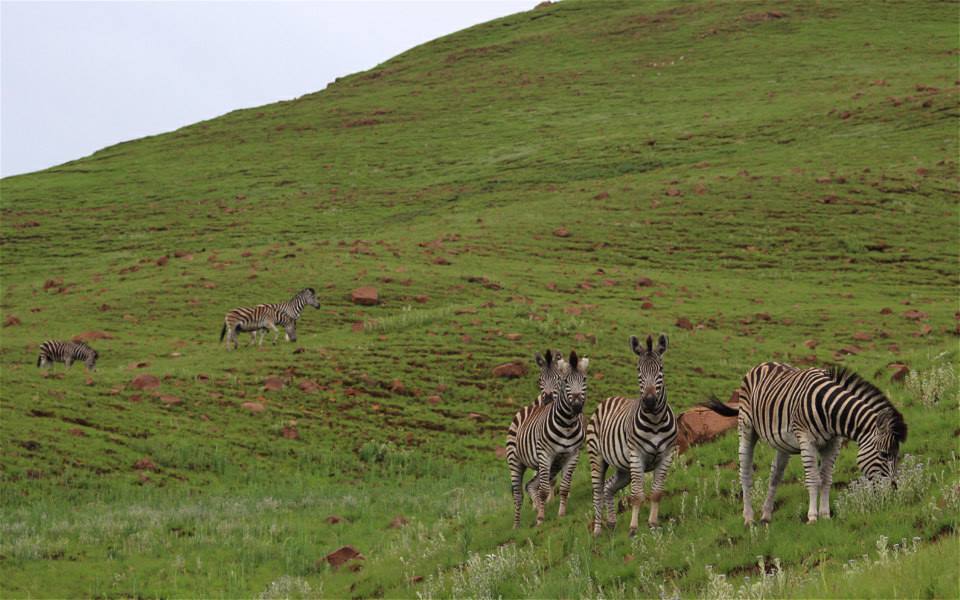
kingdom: Animalia
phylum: Chordata
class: Mammalia
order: Perissodactyla
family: Equidae
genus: Equus
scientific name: Equus quagga
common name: Plains zebra
